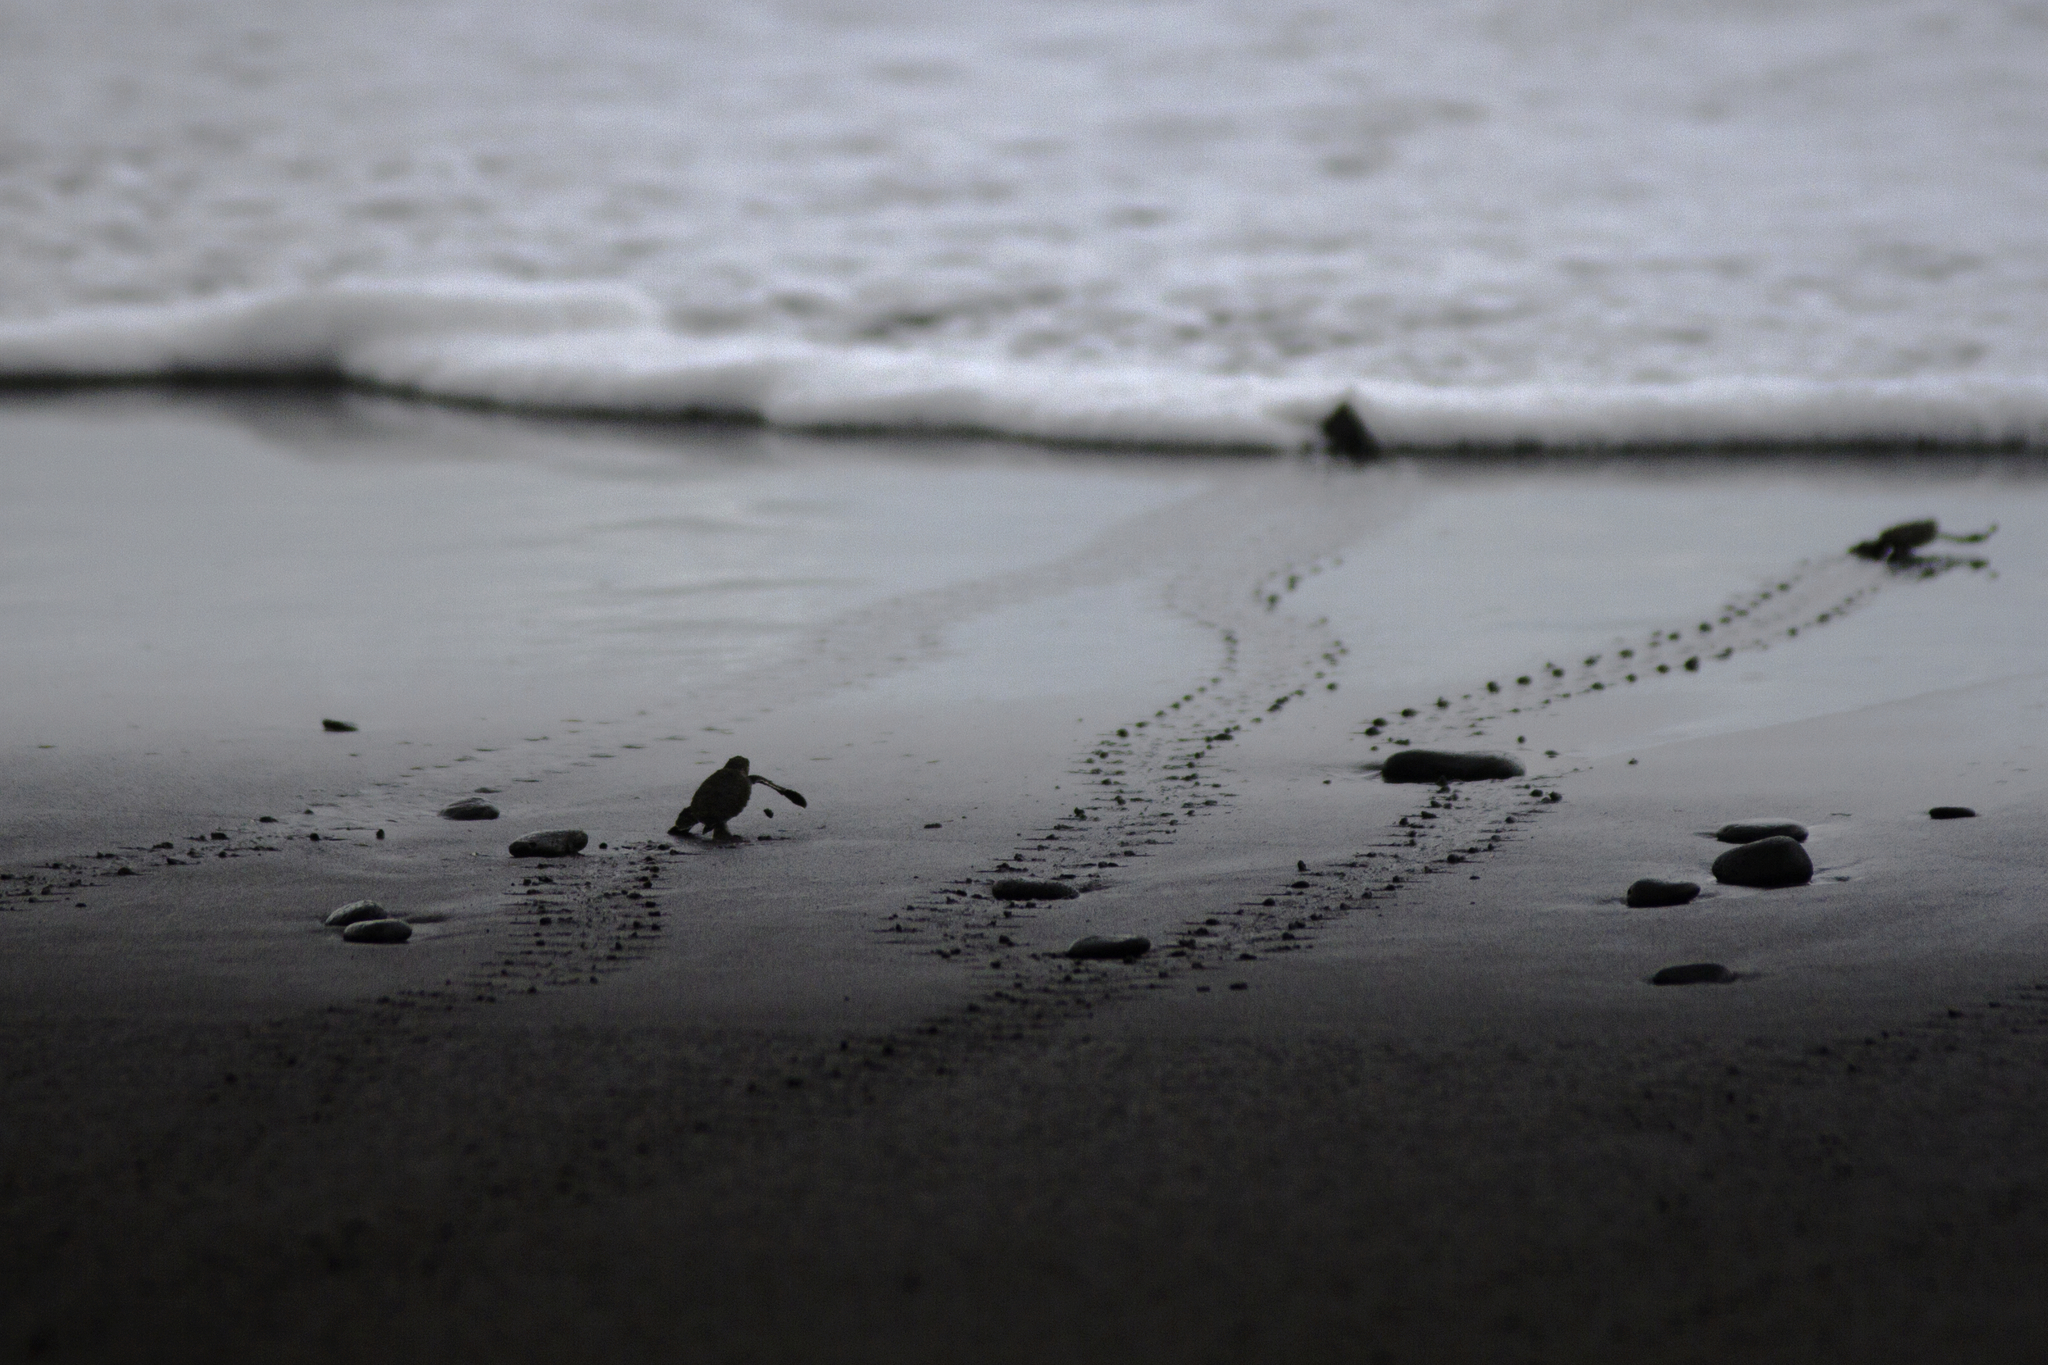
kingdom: Animalia
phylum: Chordata
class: Testudines
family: Cheloniidae
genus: Chelonia
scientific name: Chelonia mydas
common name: Green turtle
